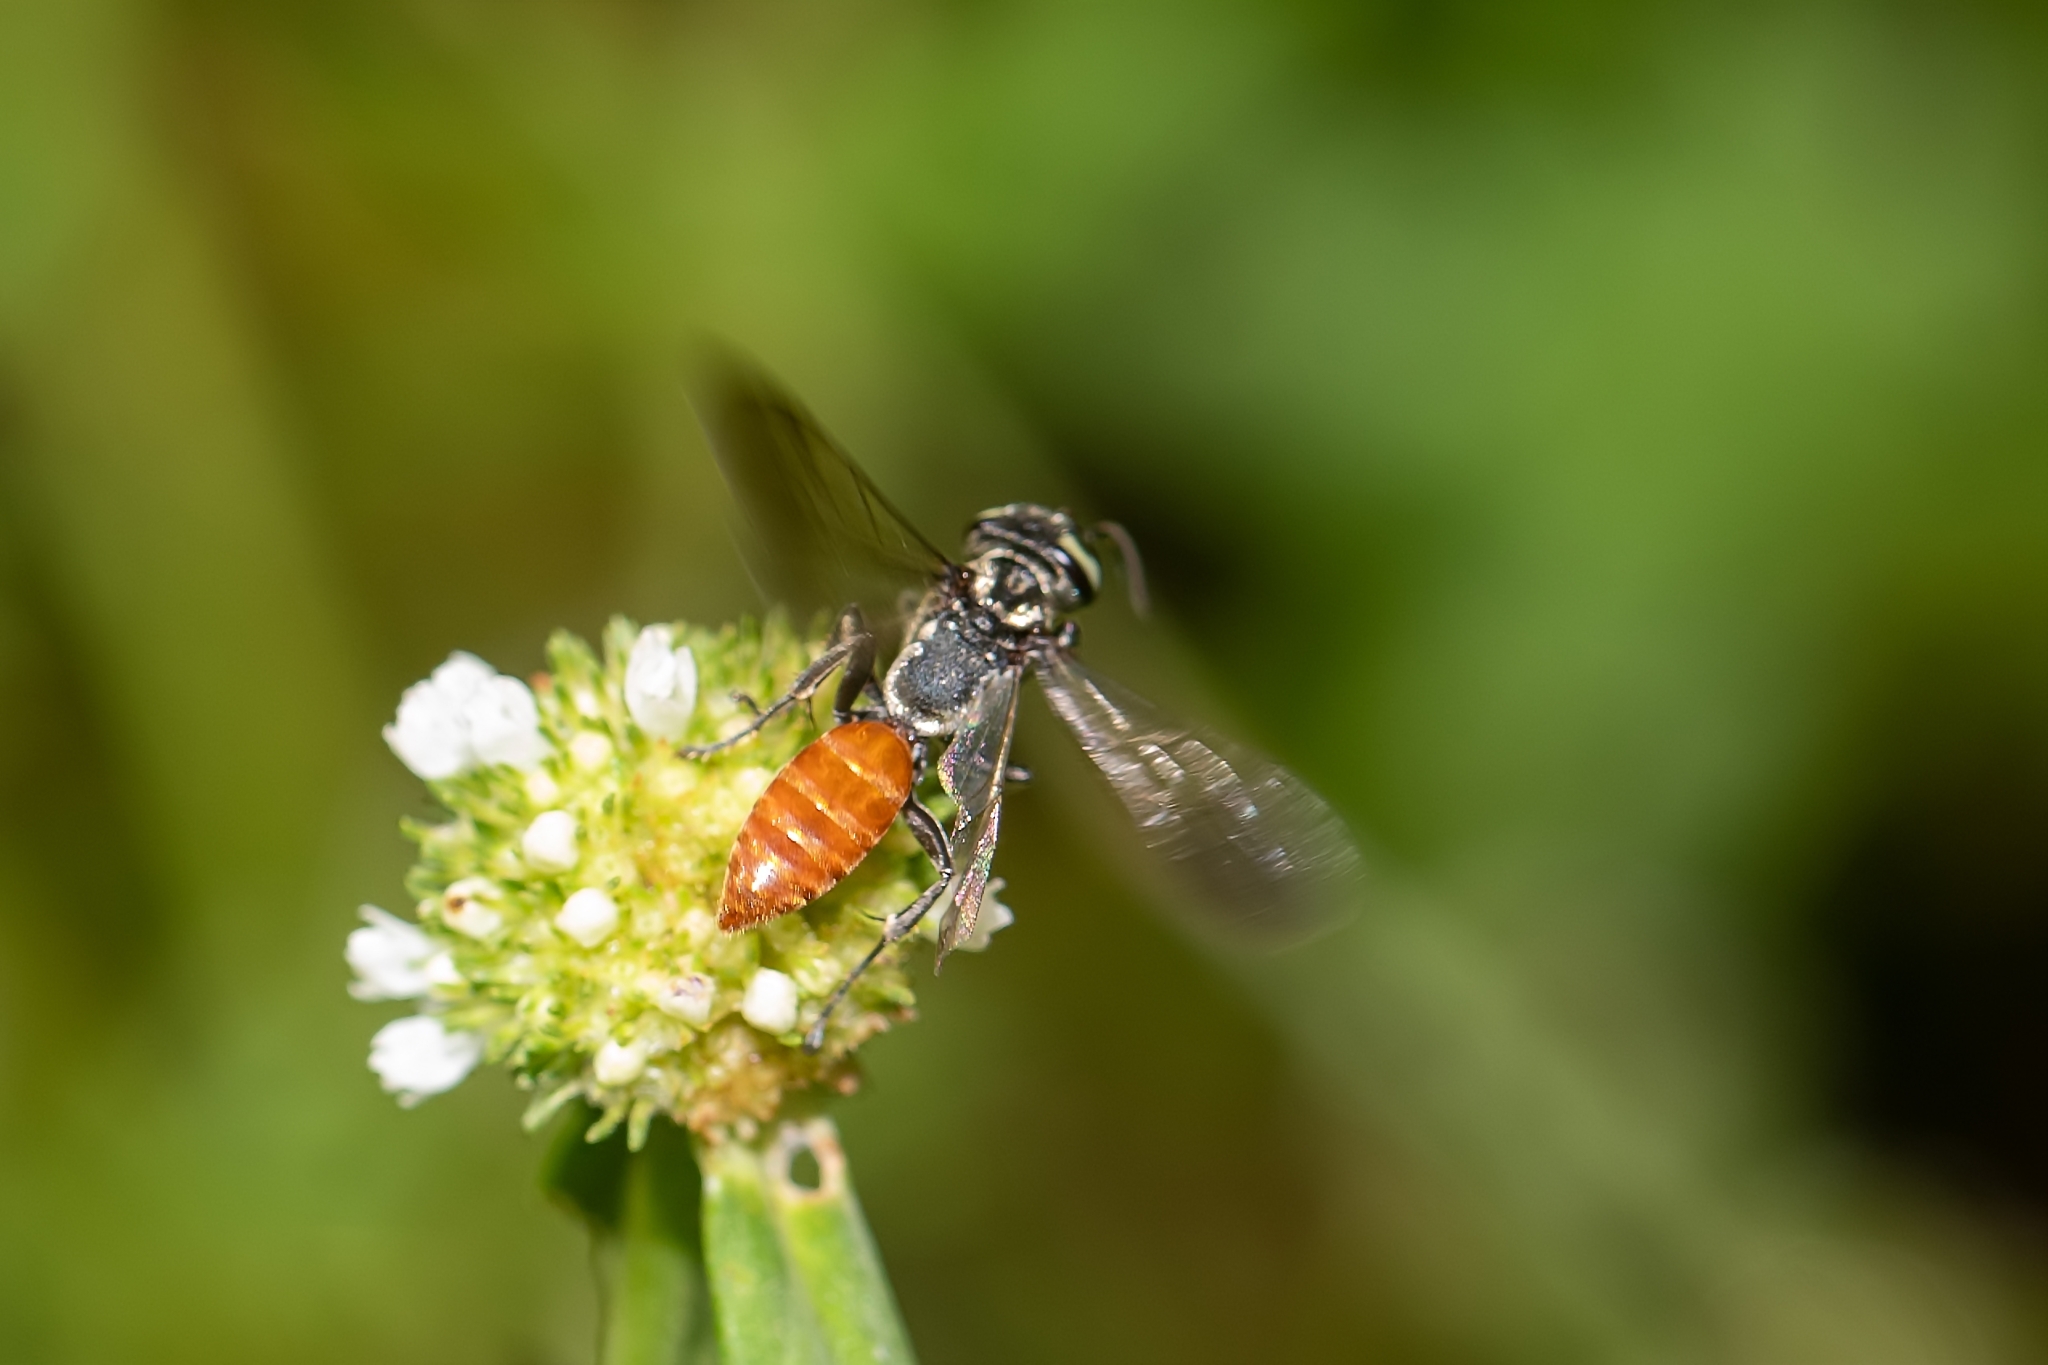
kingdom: Animalia
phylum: Arthropoda
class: Insecta
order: Hymenoptera
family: Crabronidae
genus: Larra
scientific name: Larra bicolor
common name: Wasp
